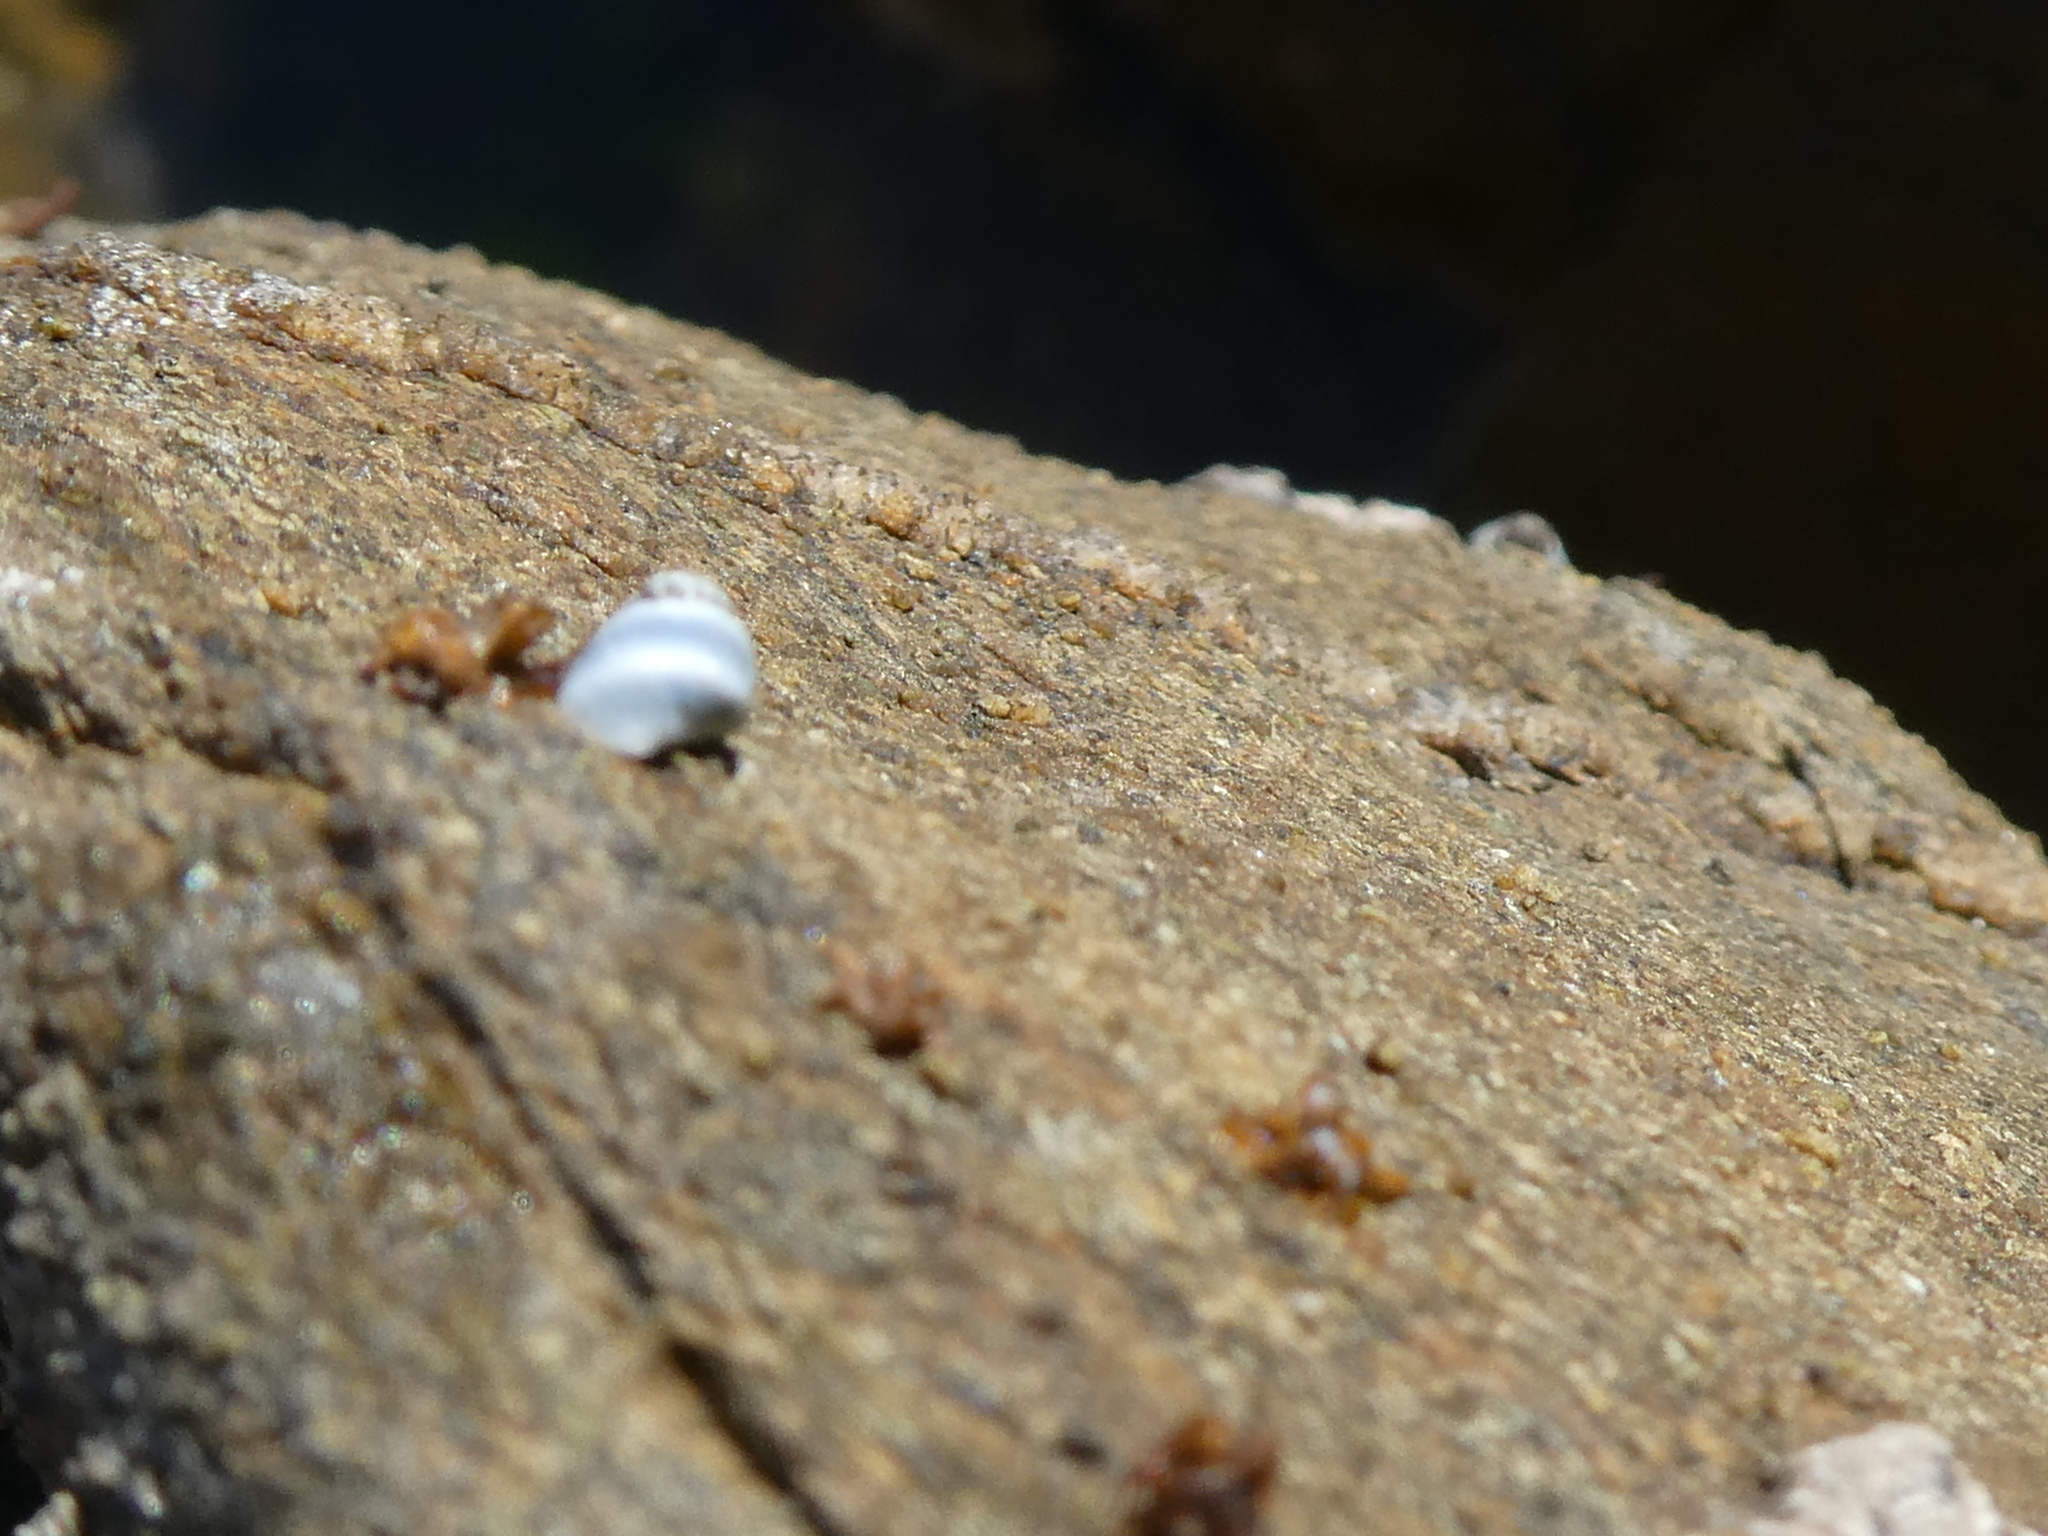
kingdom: Animalia
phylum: Mollusca
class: Gastropoda
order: Littorinimorpha
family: Littorinidae
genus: Austrolittorina
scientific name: Austrolittorina antipodum
